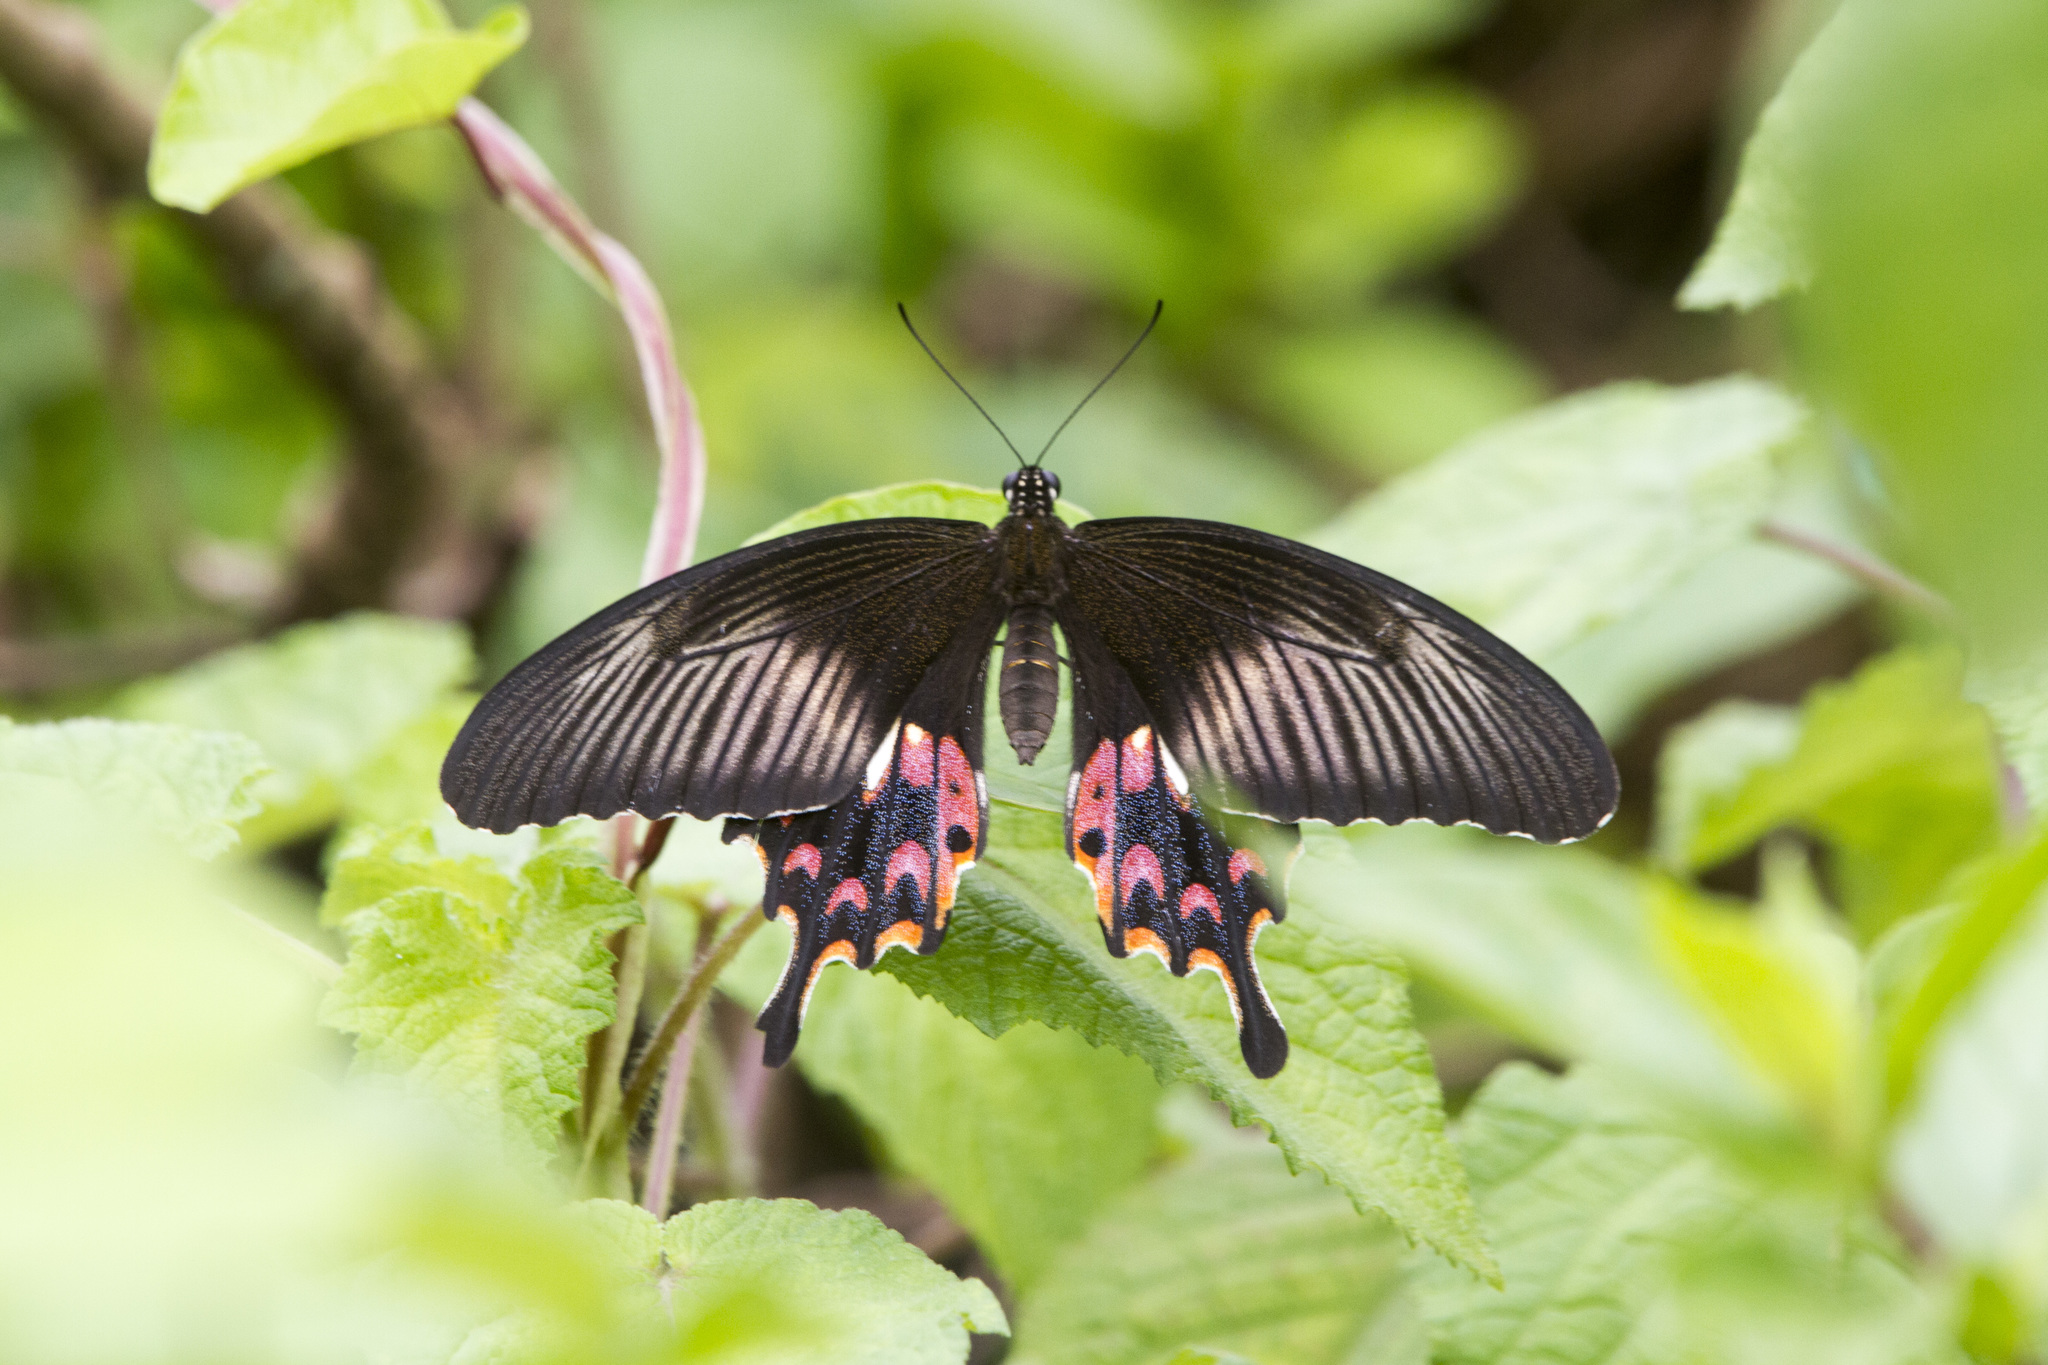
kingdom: Animalia
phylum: Arthropoda
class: Insecta
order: Lepidoptera
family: Papilionidae
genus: Papilio
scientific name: Papilio polytes
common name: Common mormon
